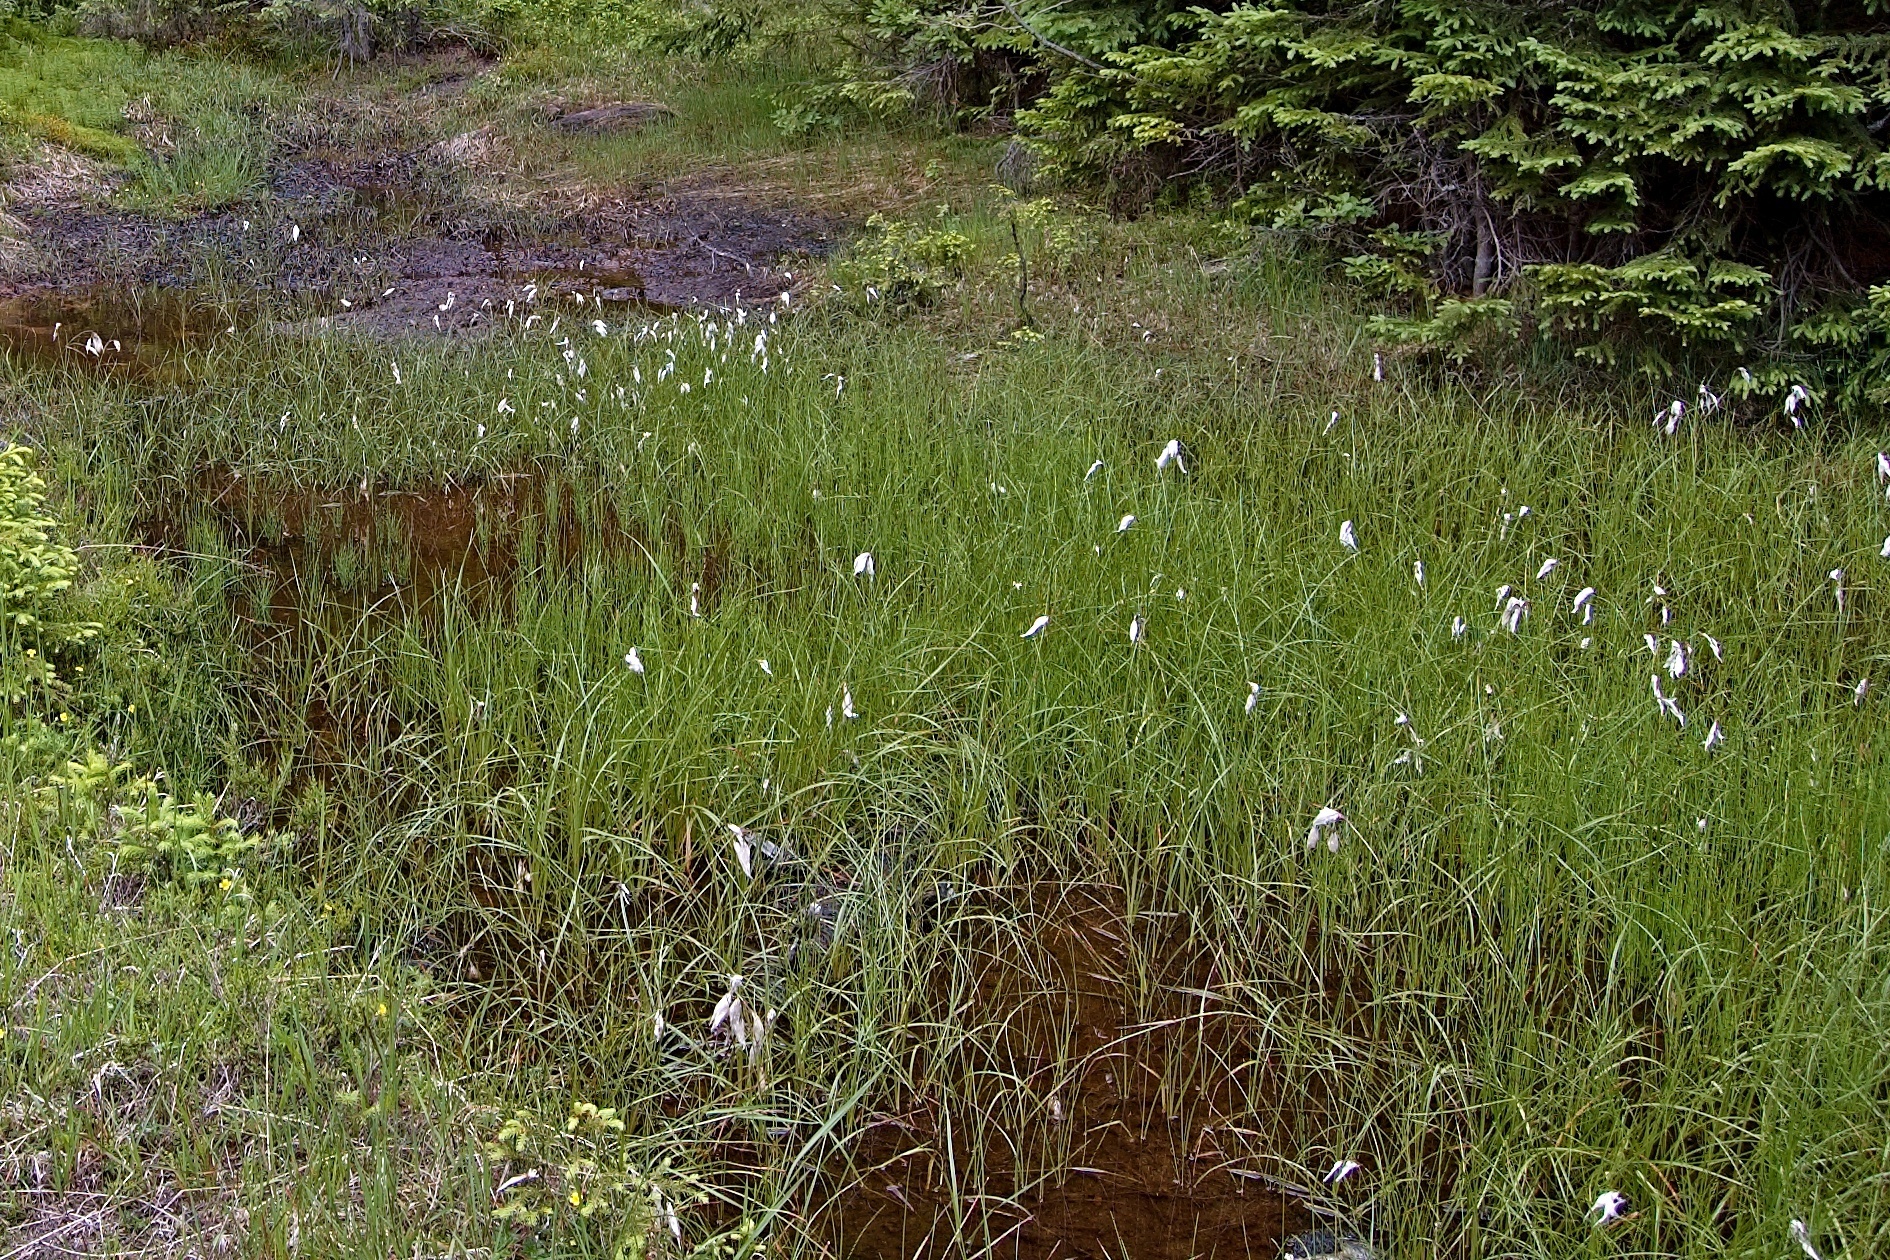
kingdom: Plantae
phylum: Tracheophyta
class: Liliopsida
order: Poales
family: Cyperaceae
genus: Eriophorum
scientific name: Eriophorum angustifolium
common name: Common cottongrass
